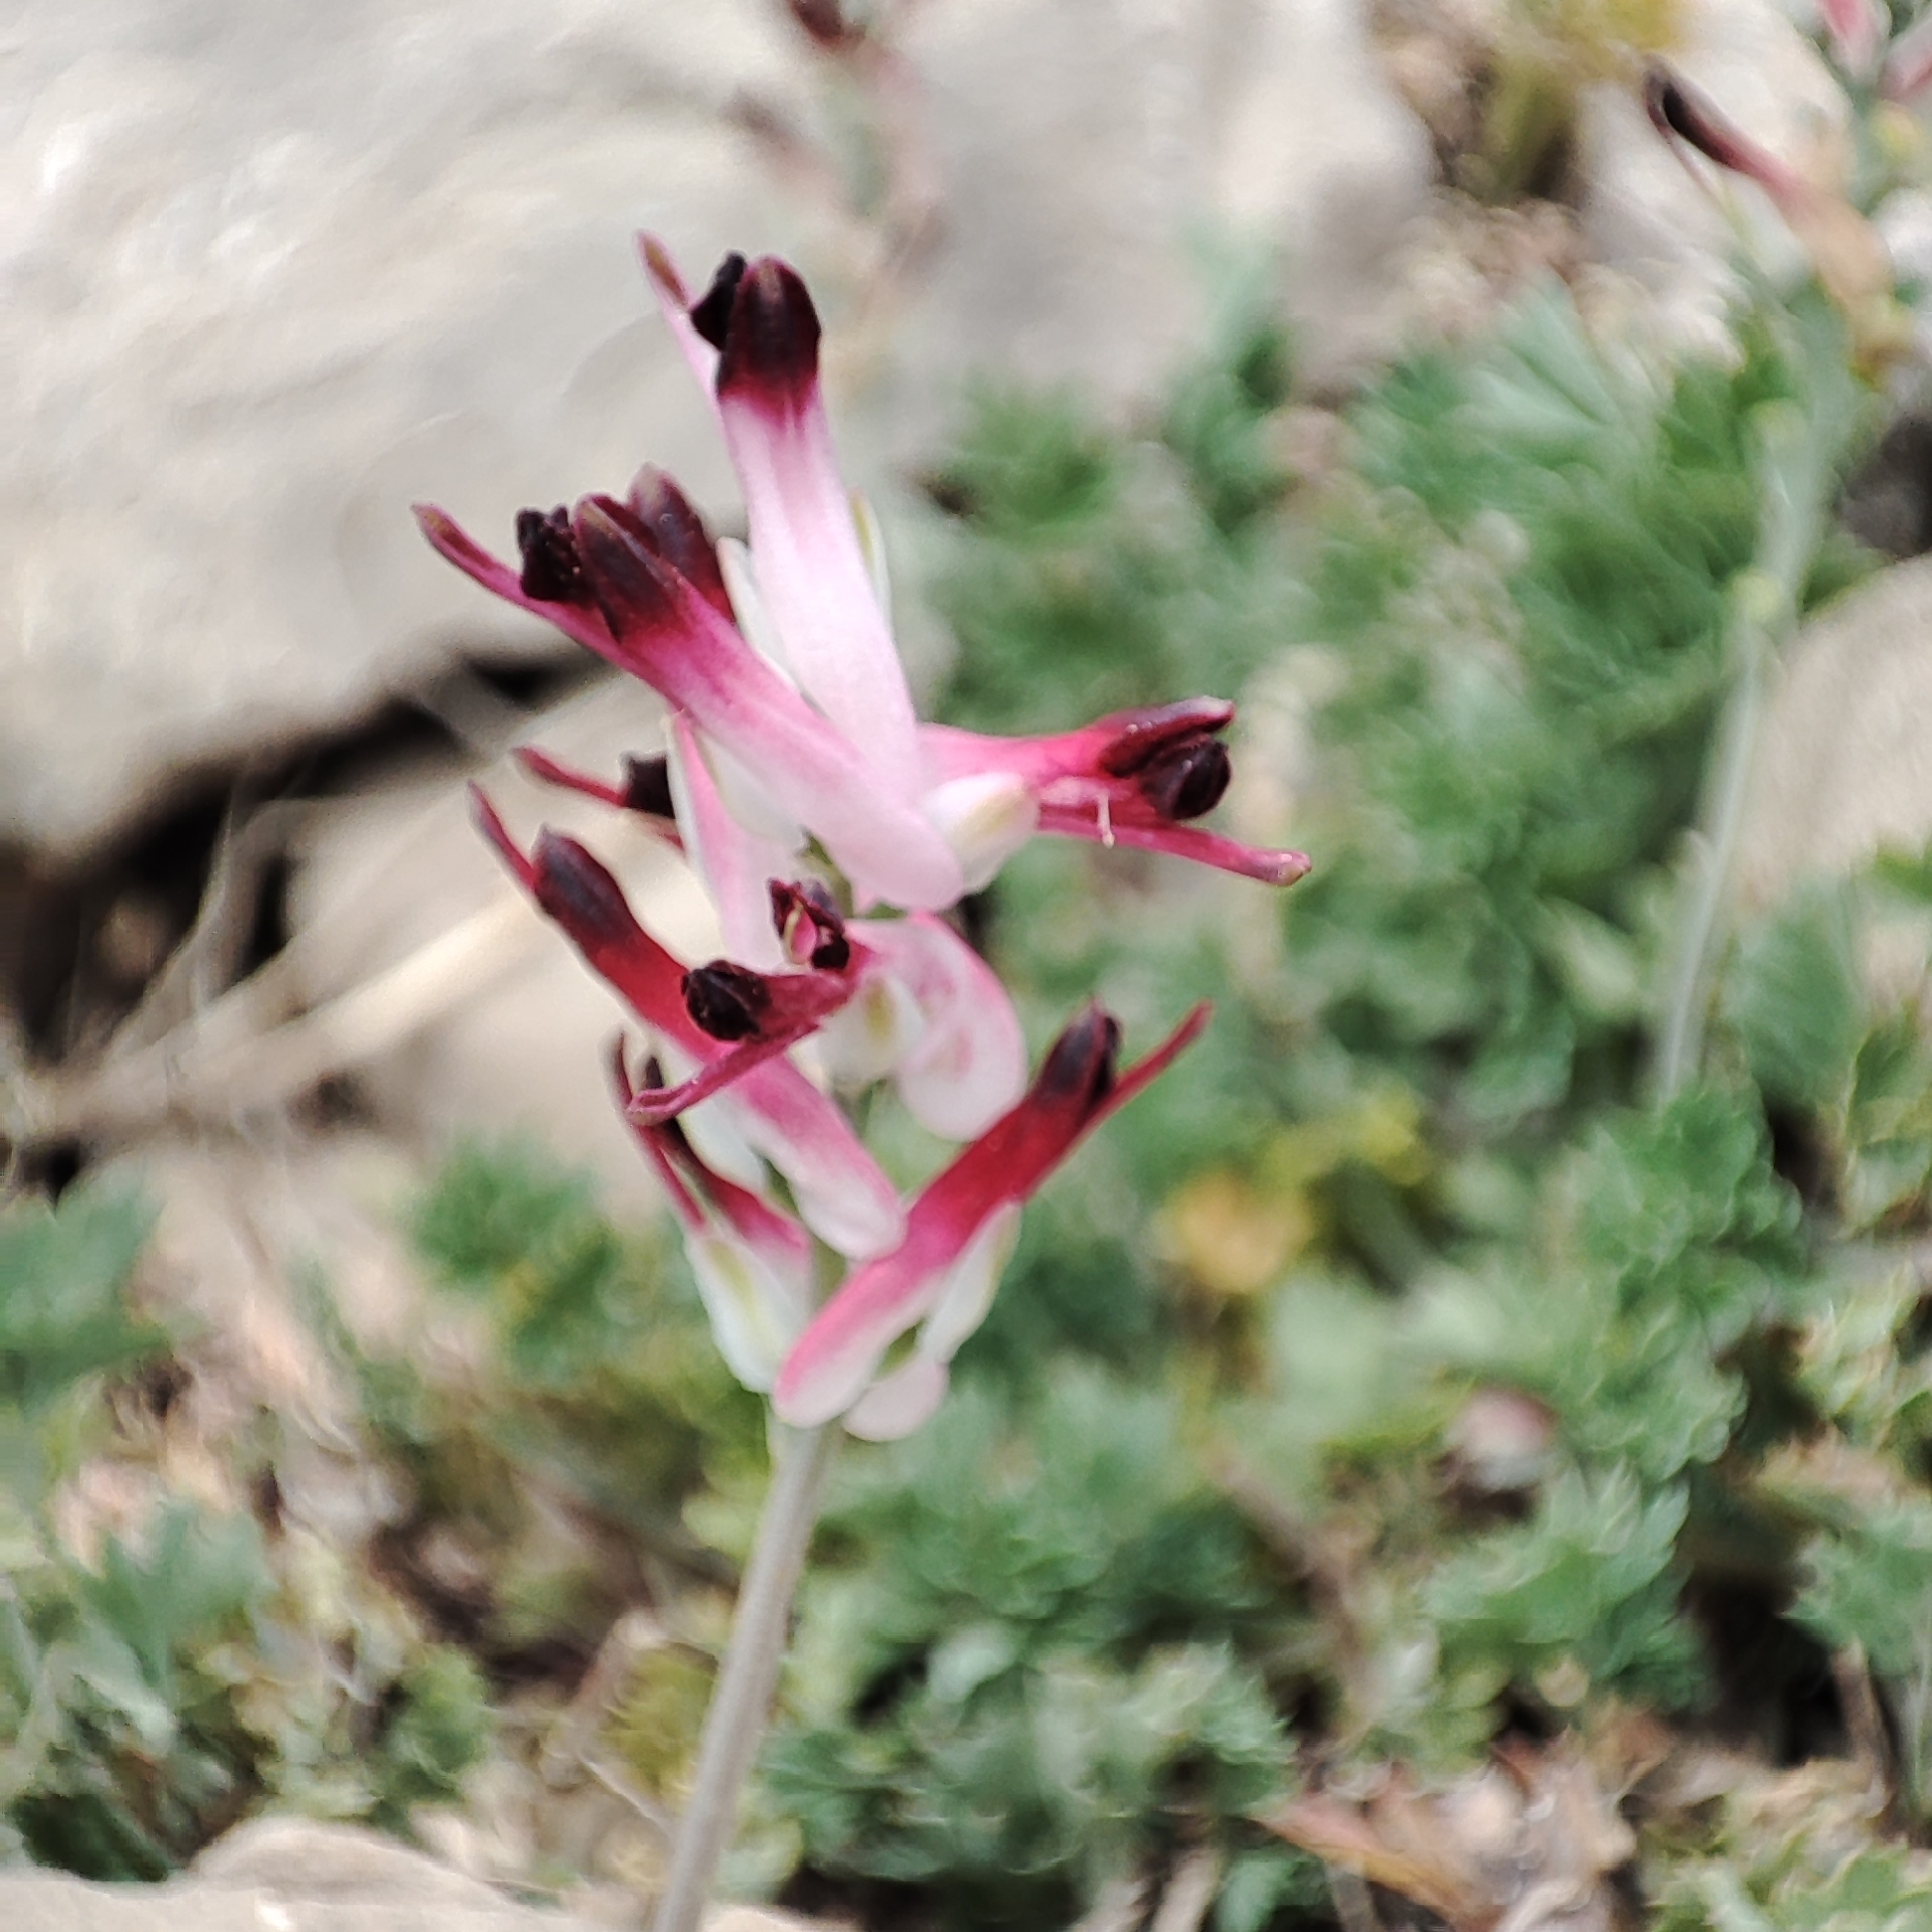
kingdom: Plantae
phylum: Tracheophyta
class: Magnoliopsida
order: Ranunculales
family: Papaveraceae
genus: Fumaria
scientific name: Fumaria
